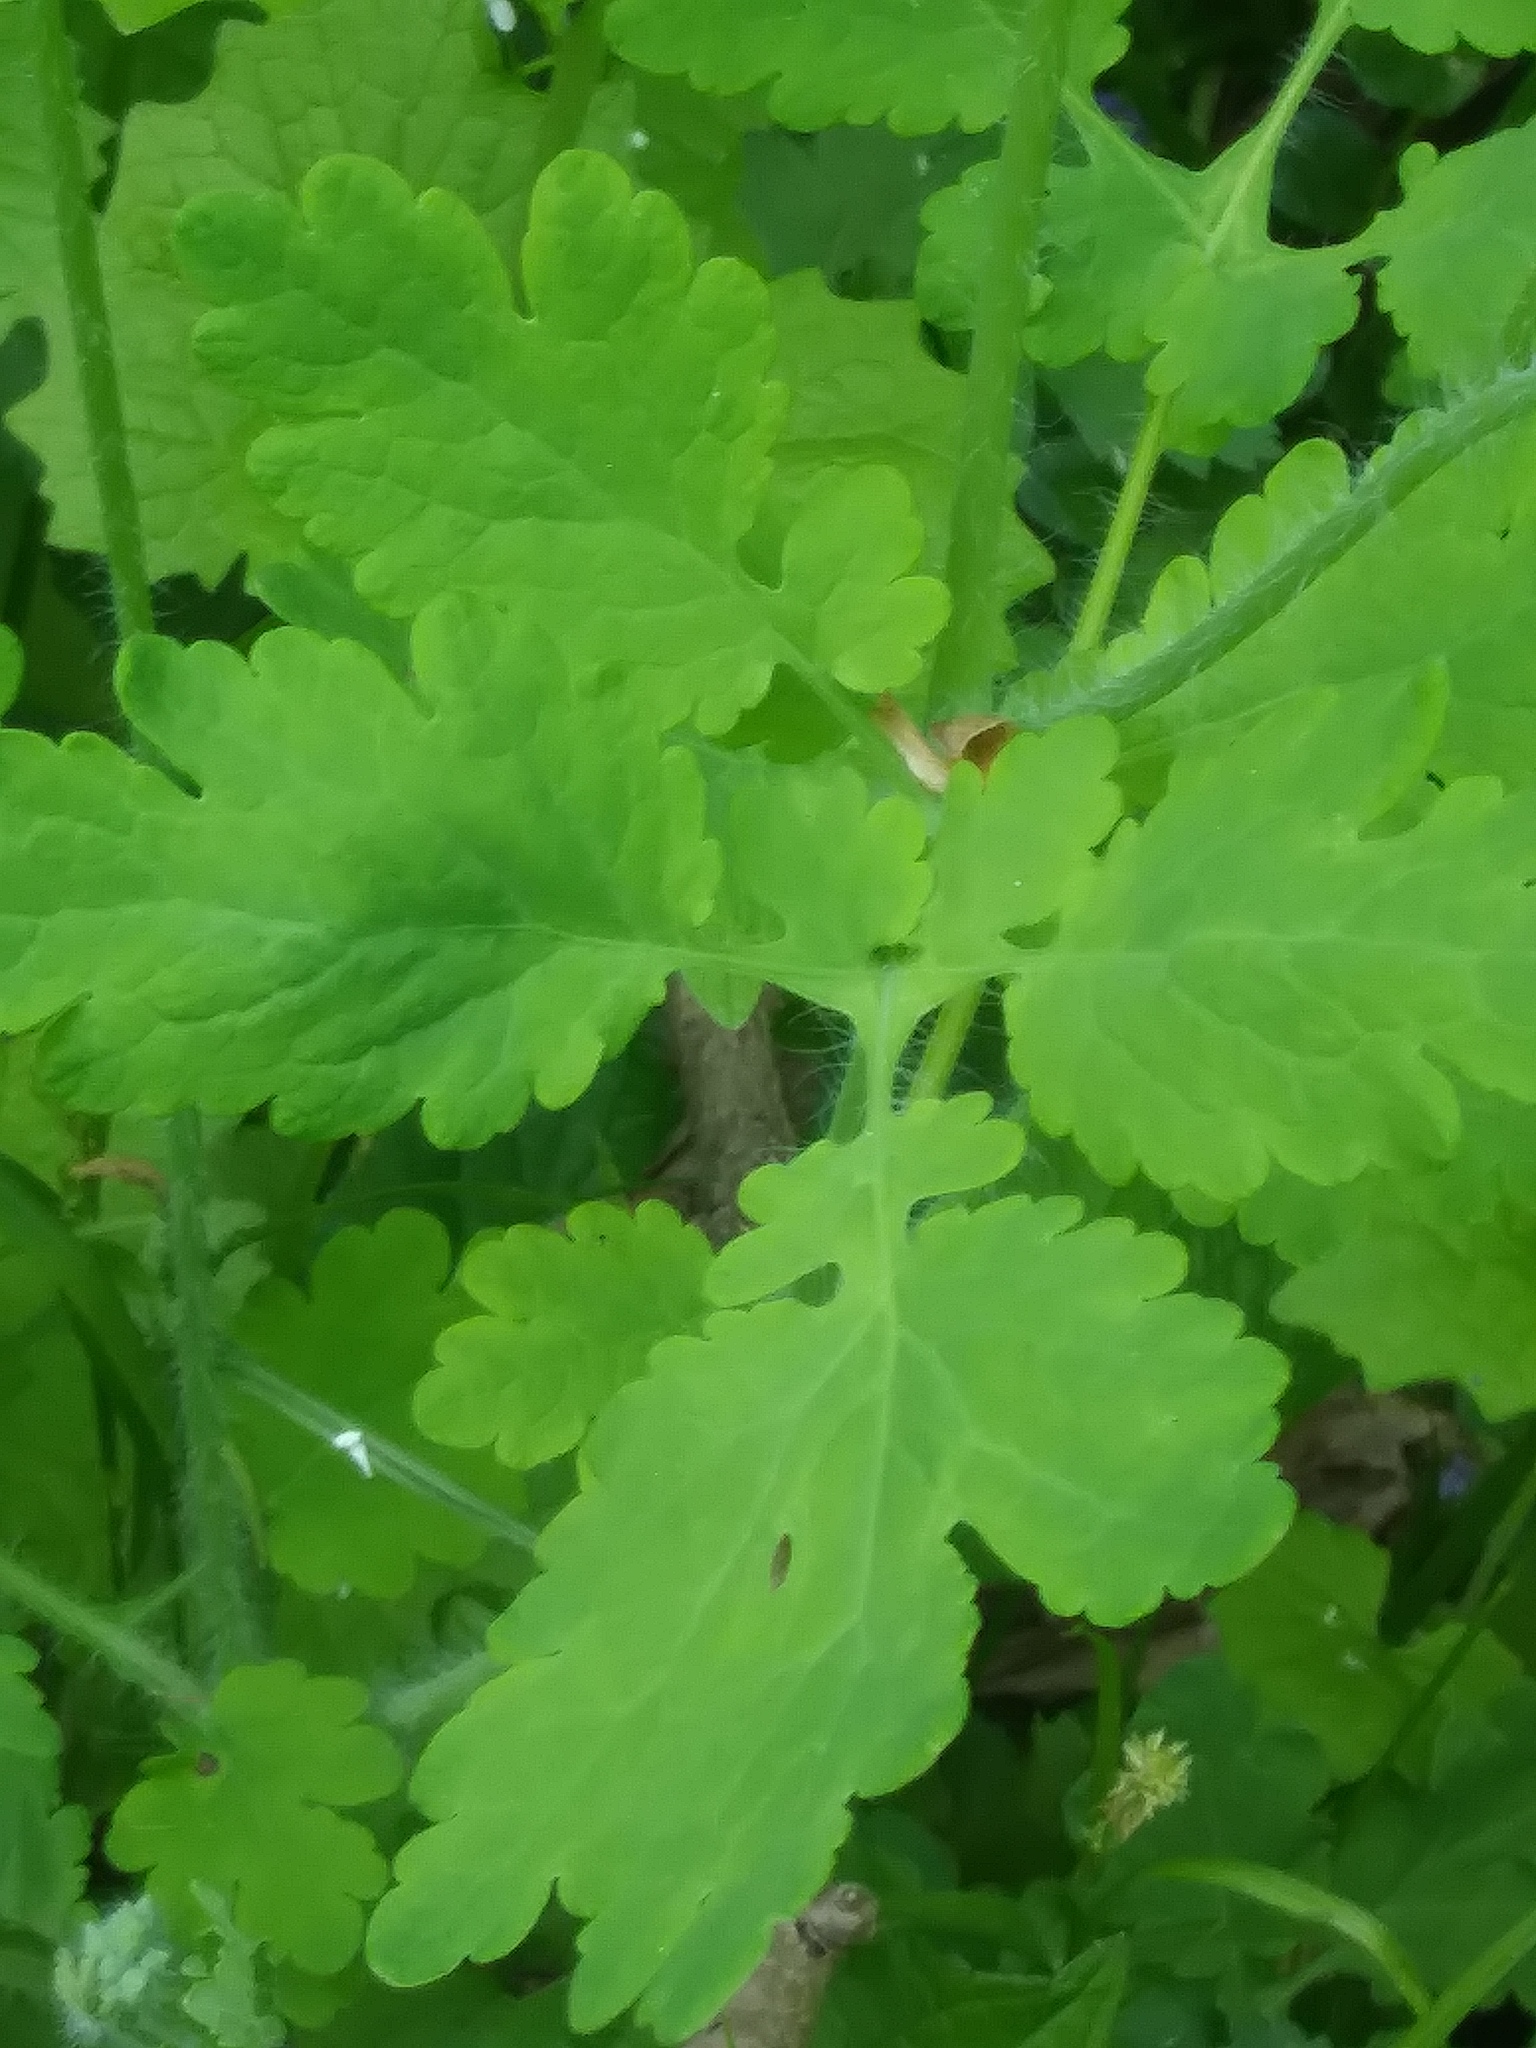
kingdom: Plantae
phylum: Tracheophyta
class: Magnoliopsida
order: Ranunculales
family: Papaveraceae
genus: Chelidonium
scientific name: Chelidonium majus
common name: Greater celandine
